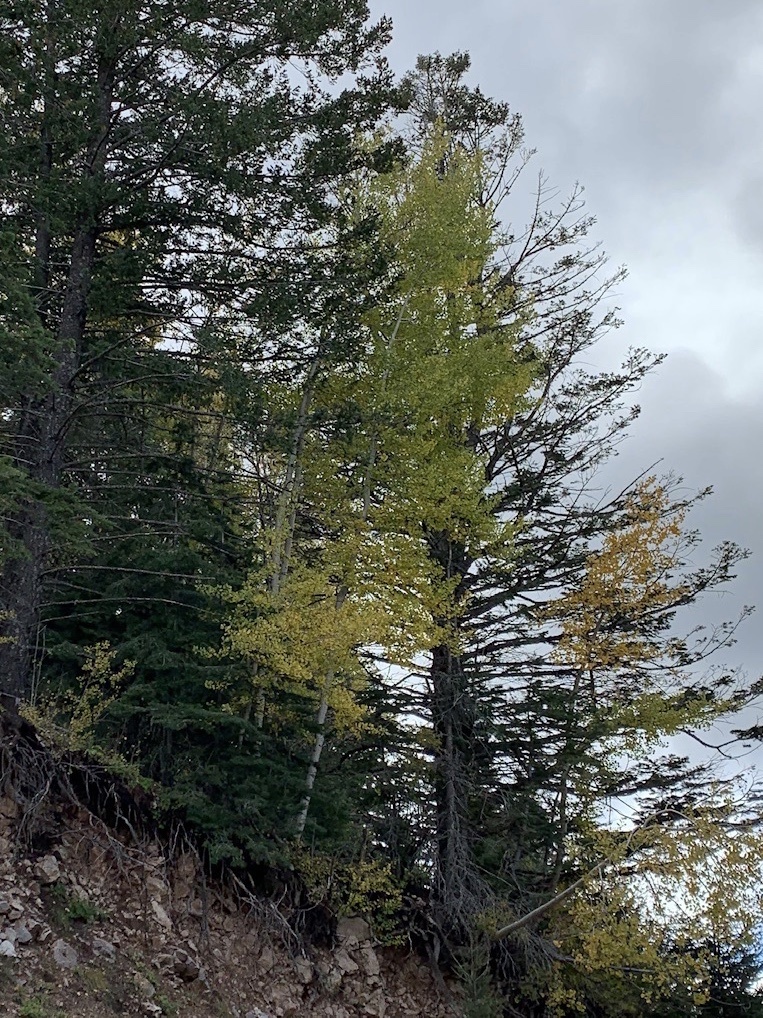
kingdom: Plantae
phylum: Tracheophyta
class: Magnoliopsida
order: Malpighiales
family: Salicaceae
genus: Populus
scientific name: Populus tremuloides
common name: Quaking aspen
